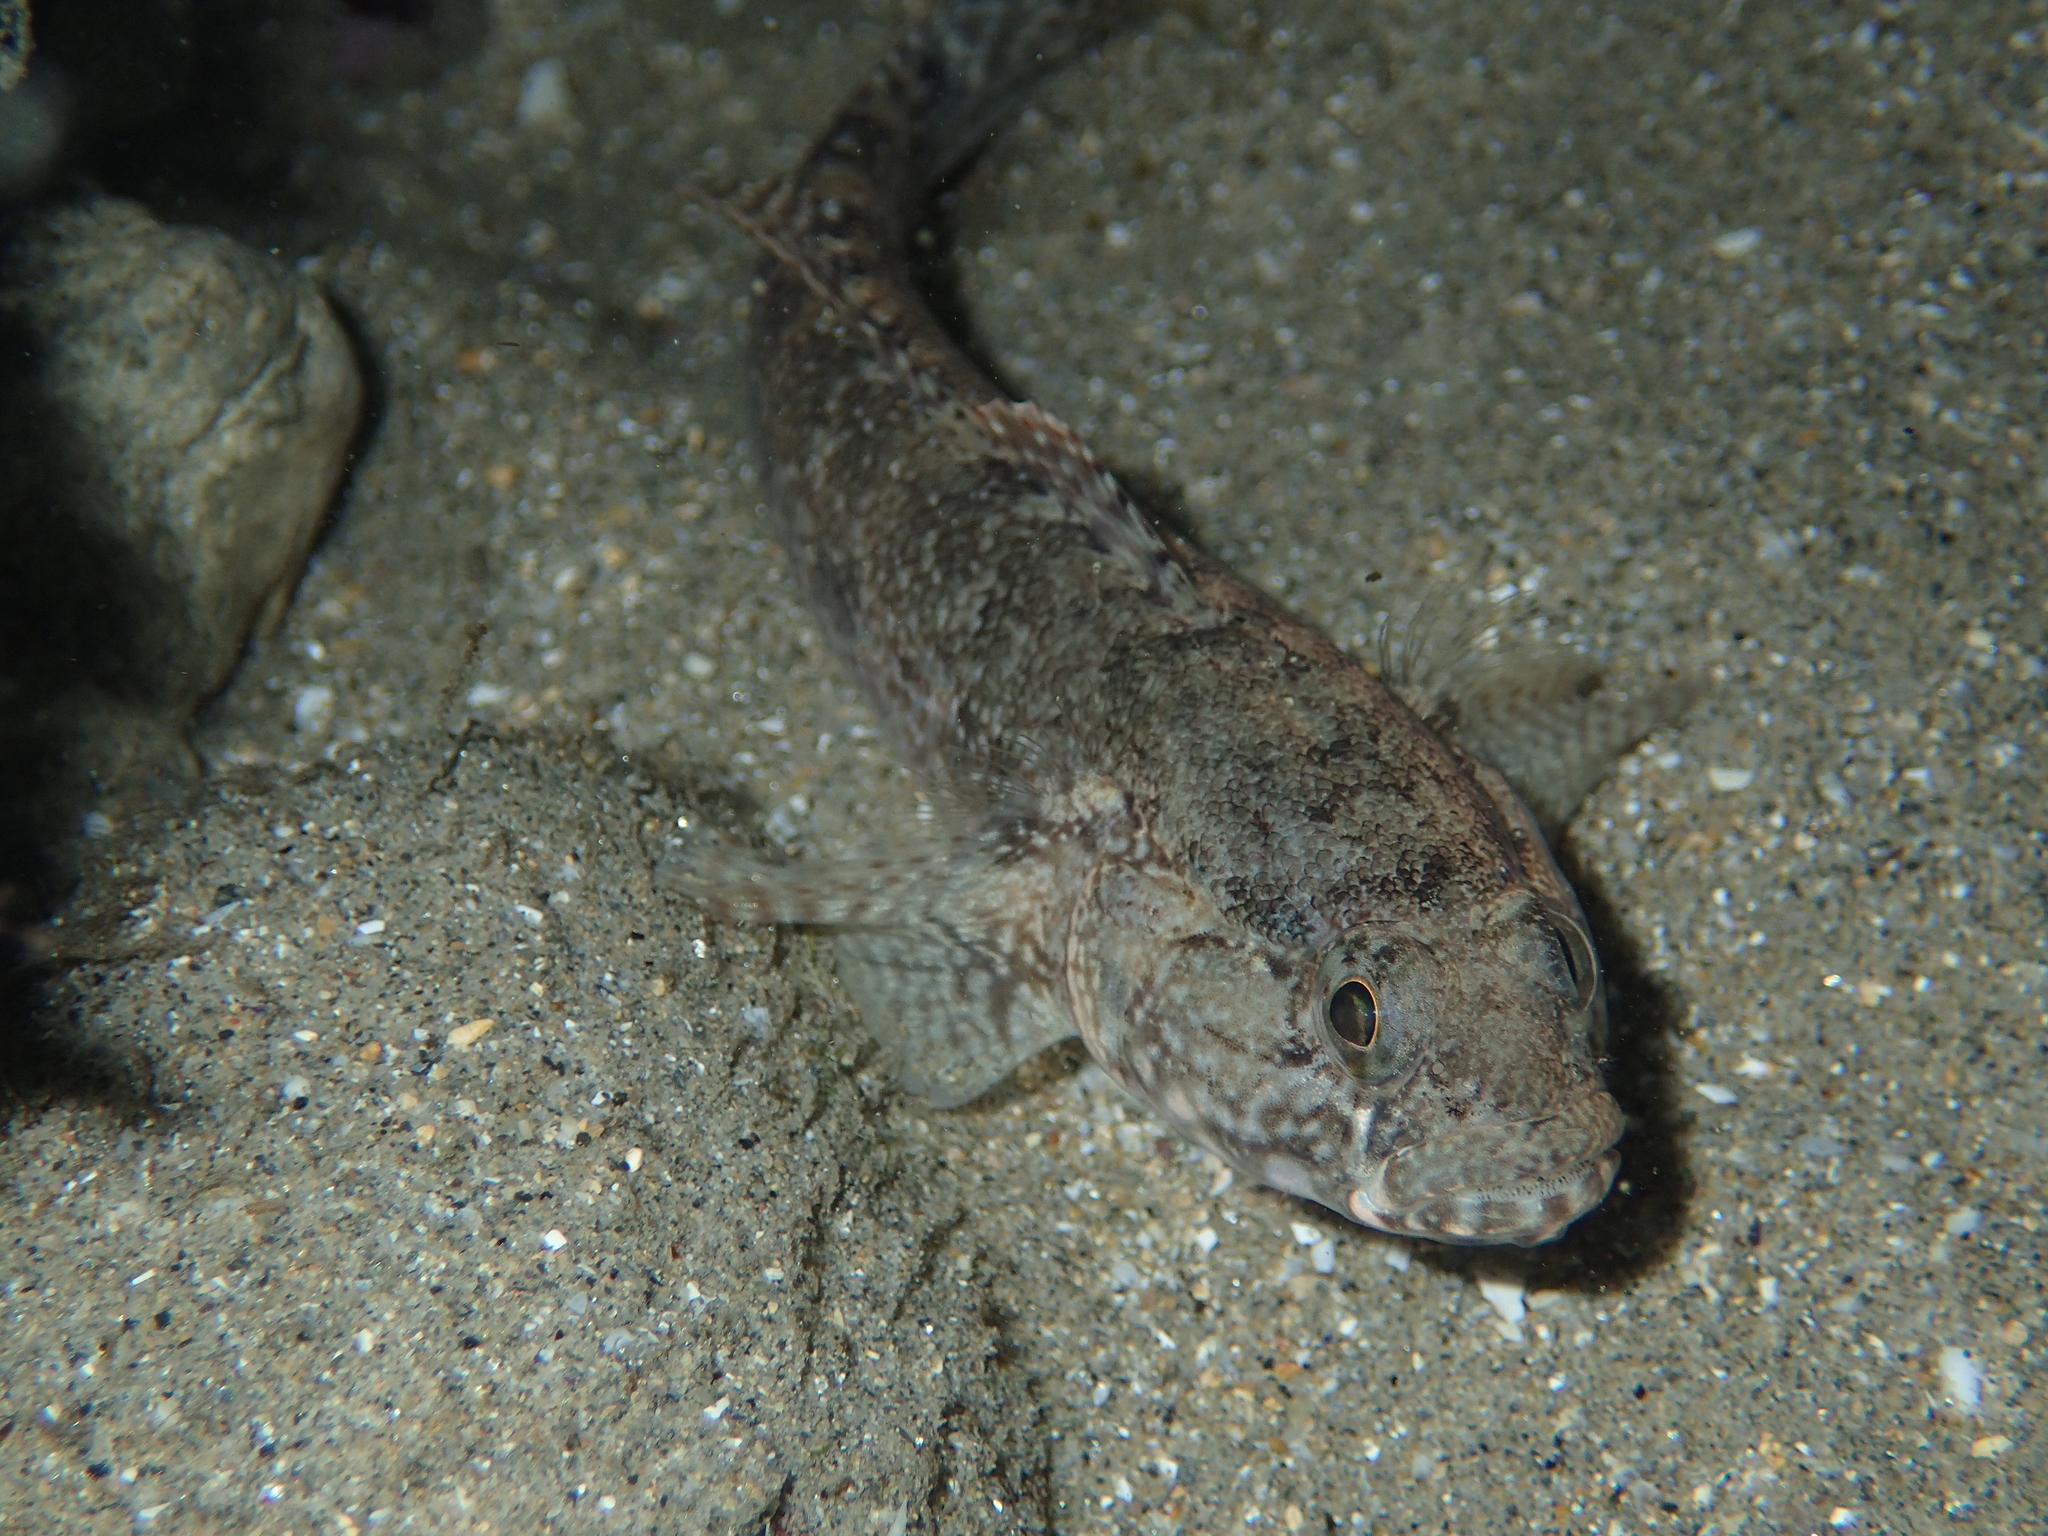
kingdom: Animalia
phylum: Chordata
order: Perciformes
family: Gobiidae
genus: Gobius
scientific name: Gobius paganellus
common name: Rock goby
